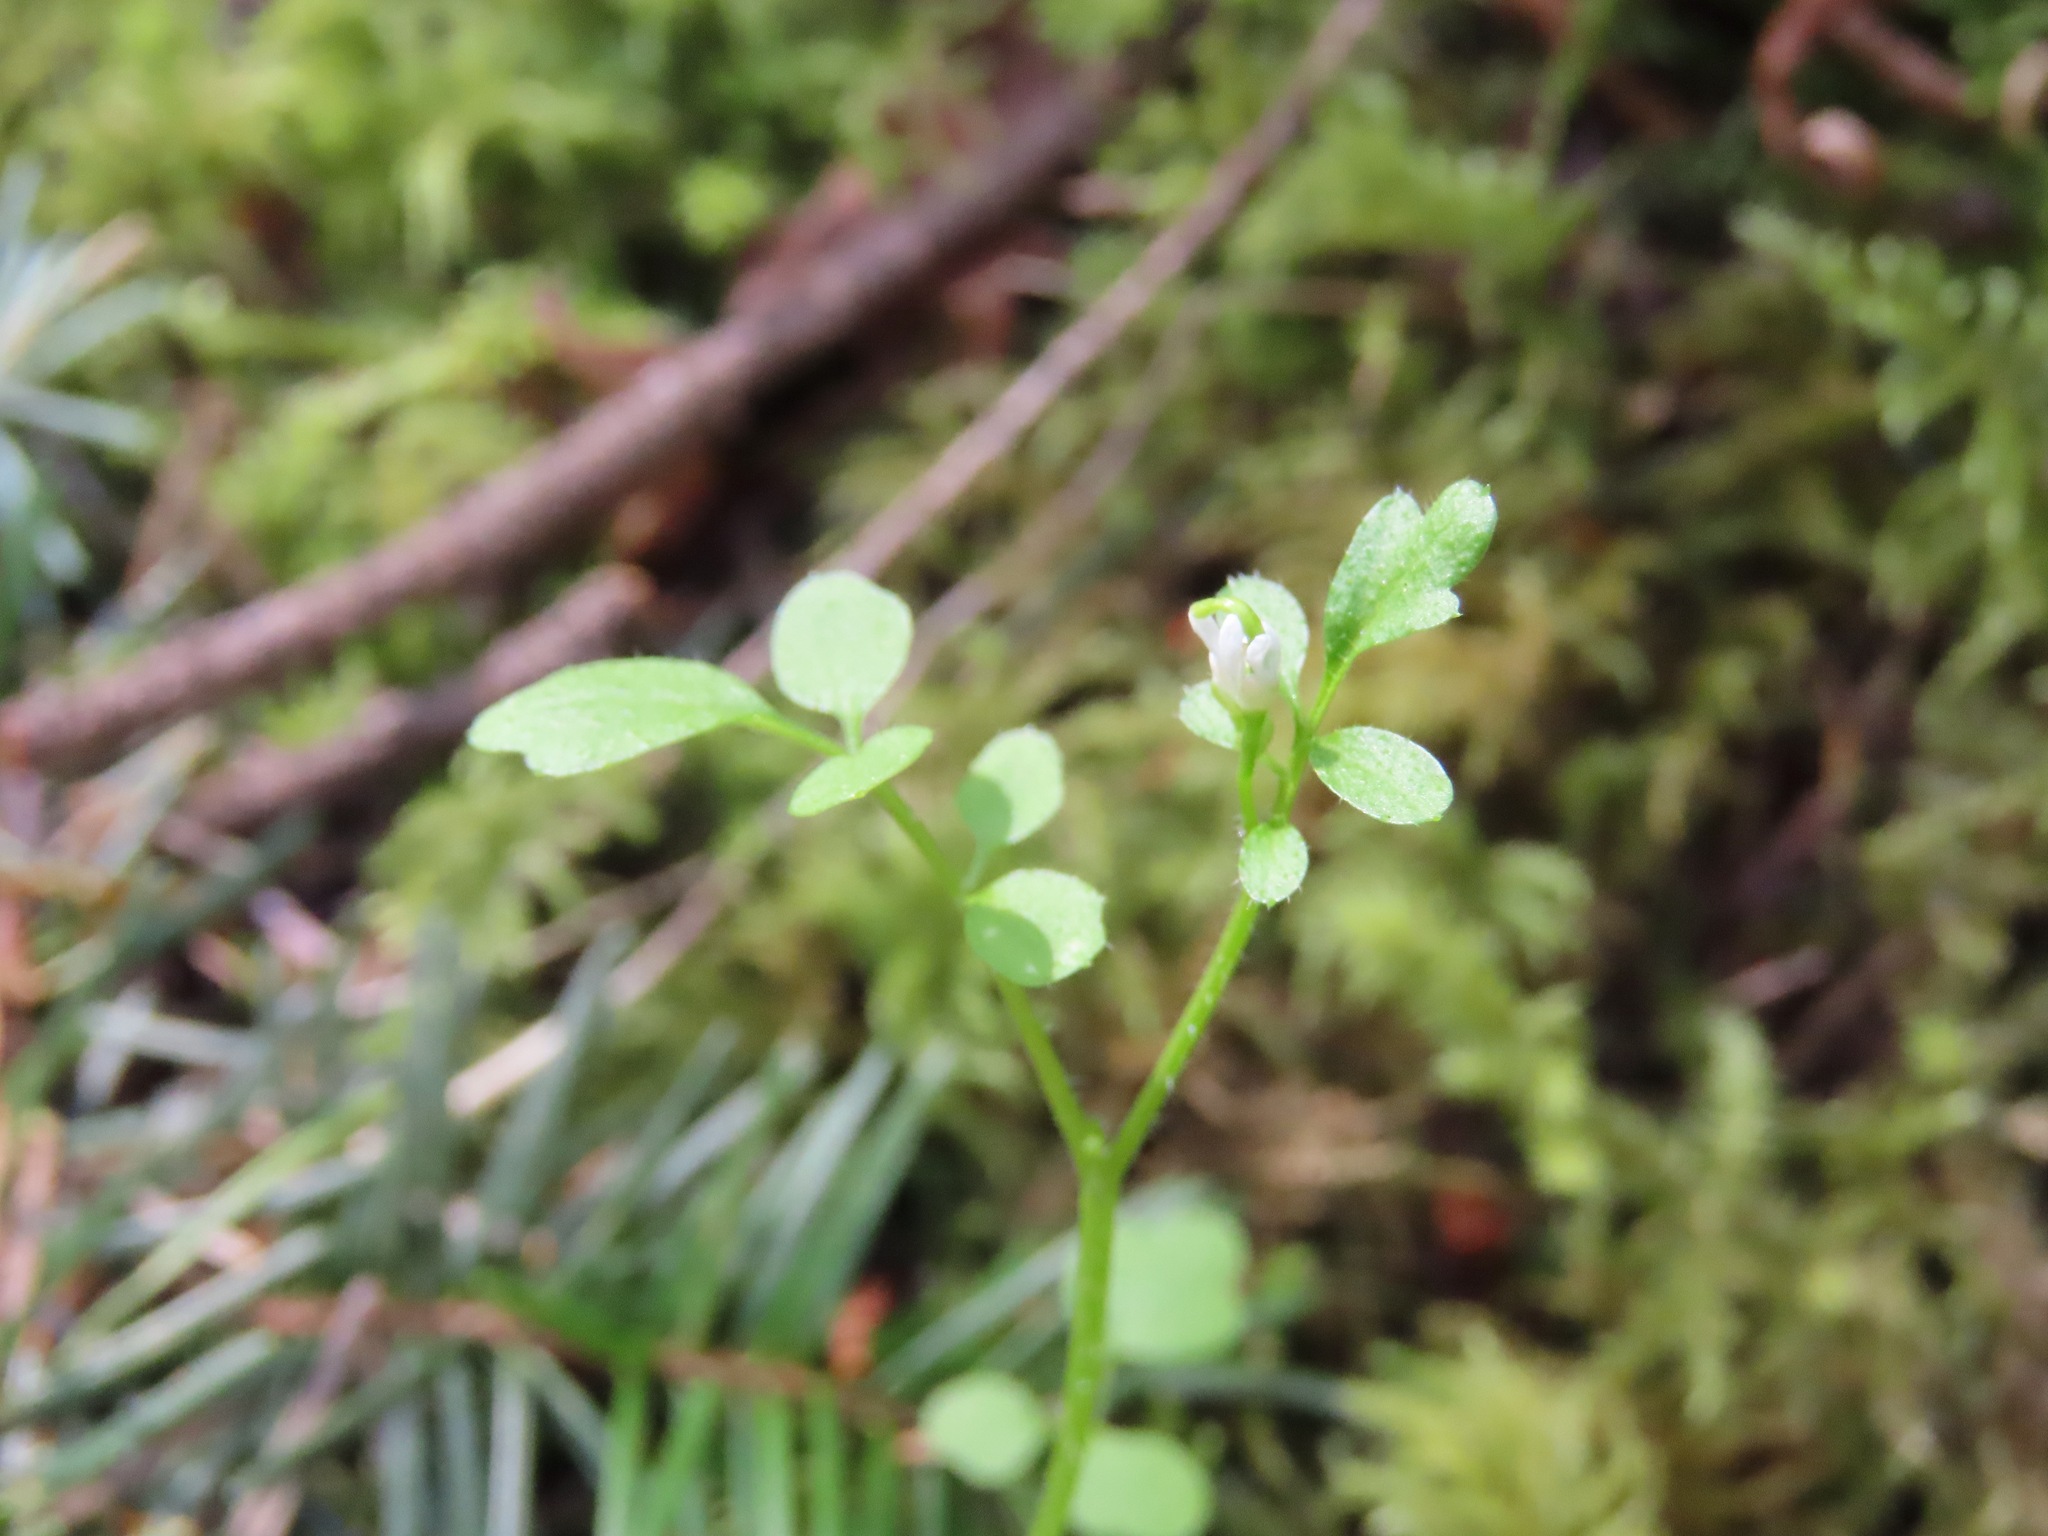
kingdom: Plantae
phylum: Tracheophyta
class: Magnoliopsida
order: Brassicales
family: Brassicaceae
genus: Cardamine
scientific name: Cardamine oligosperma
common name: Idaho bittercress
